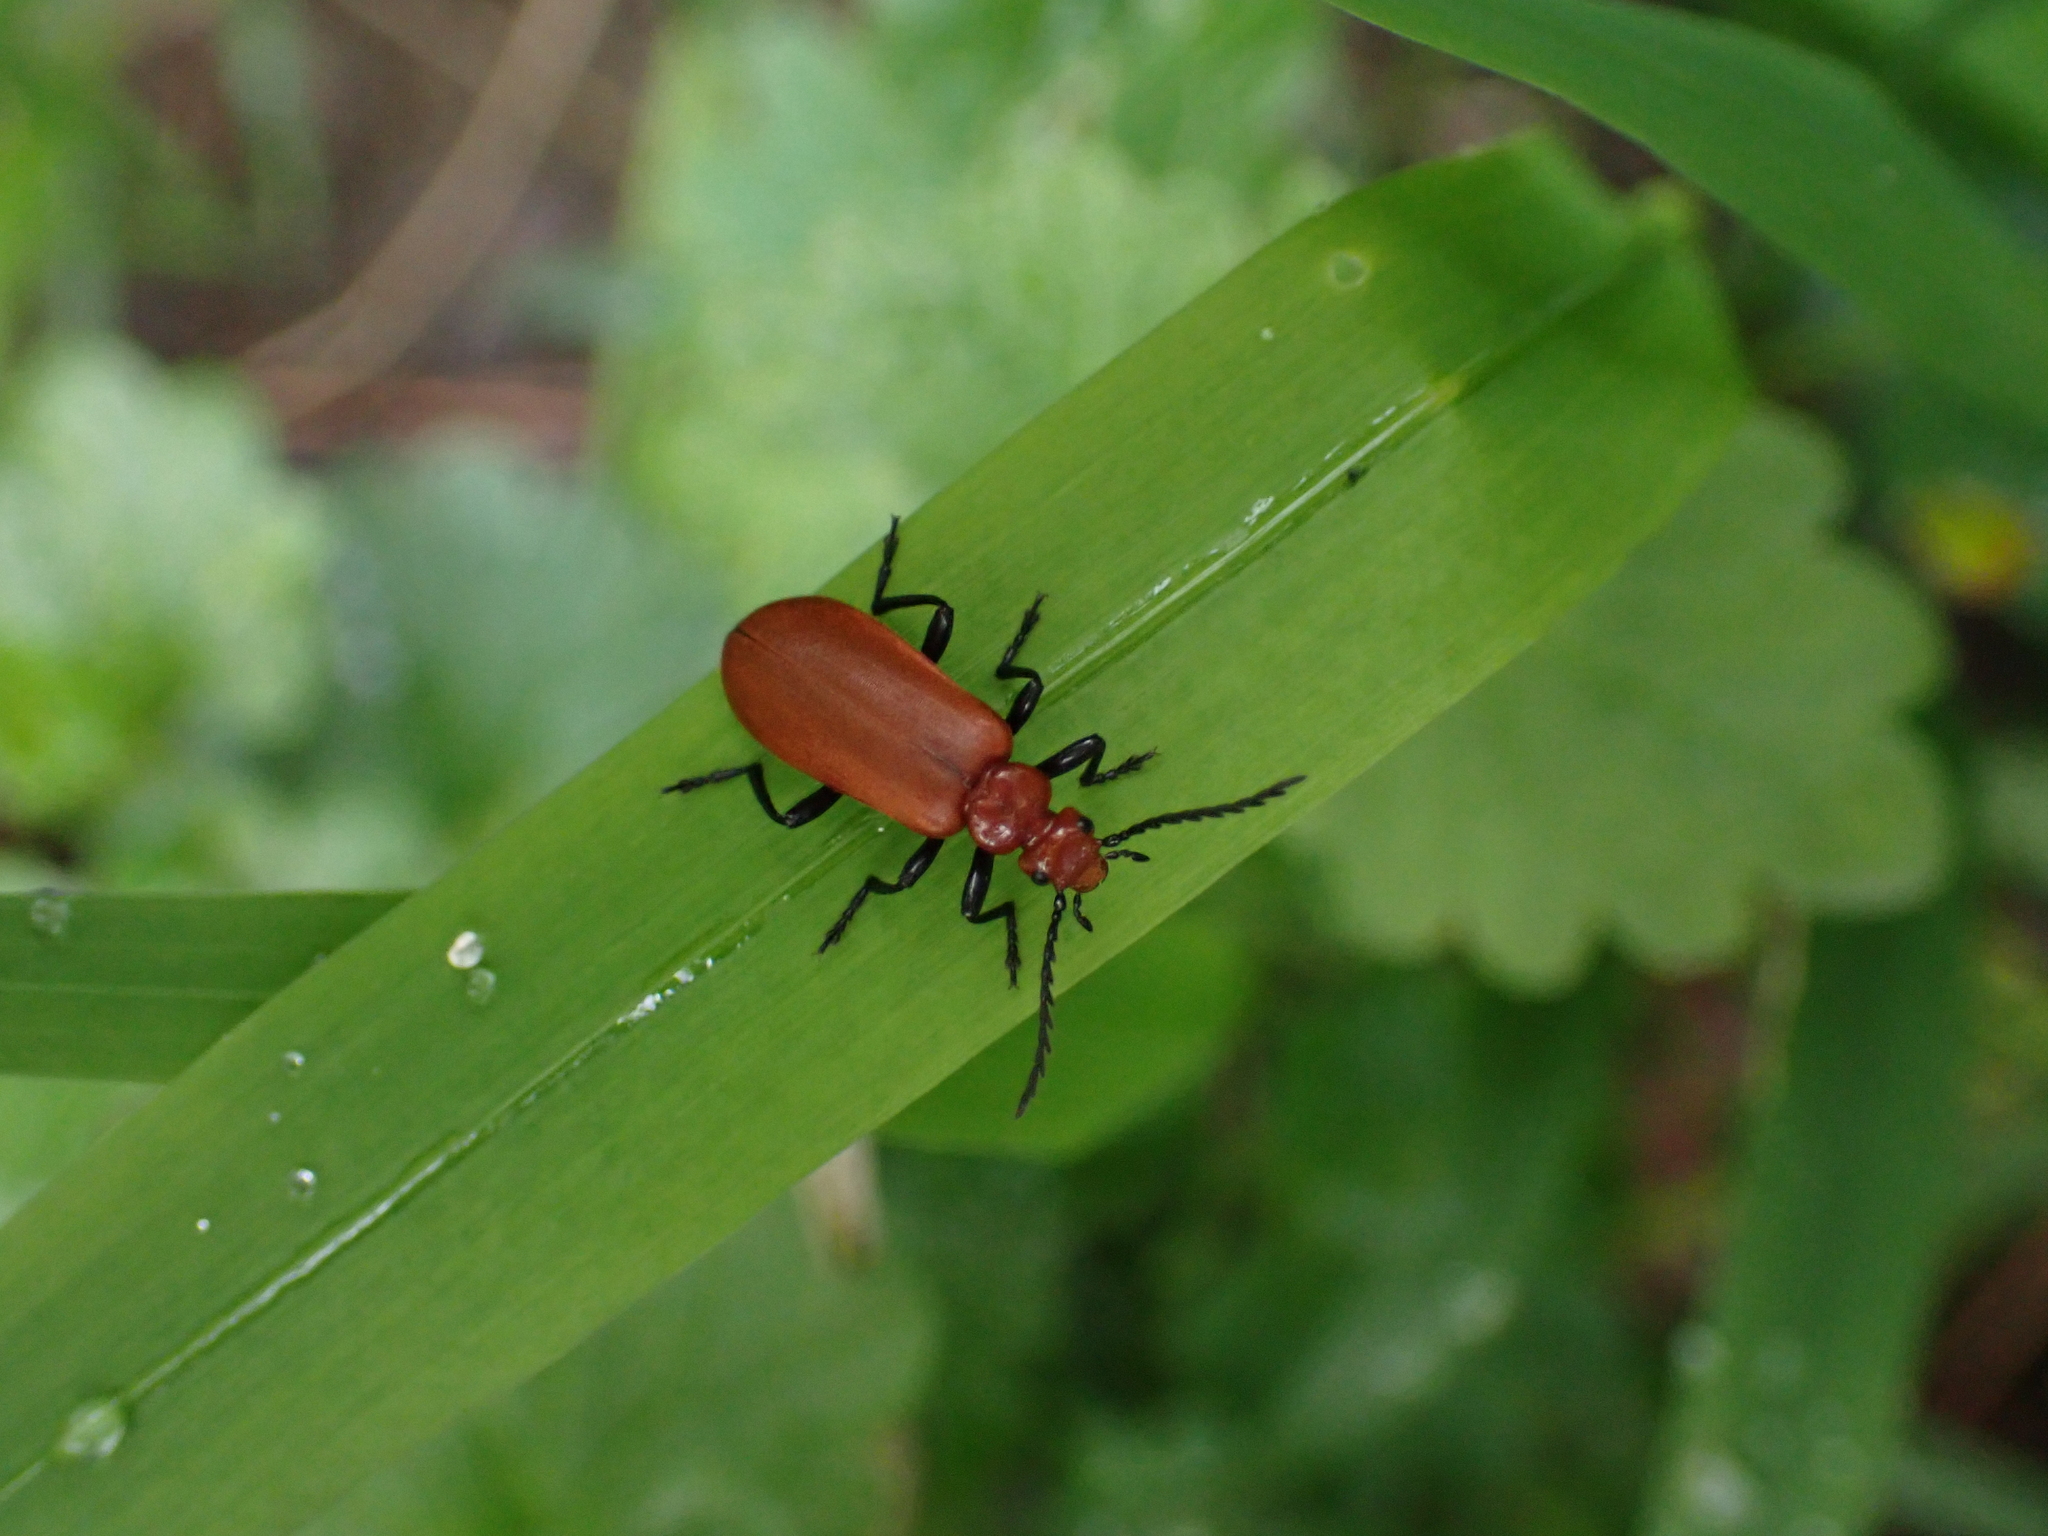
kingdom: Animalia
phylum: Arthropoda
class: Insecta
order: Coleoptera
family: Pyrochroidae
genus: Pyrochroa
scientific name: Pyrochroa serraticornis
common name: Red-headed cardinal beetle
